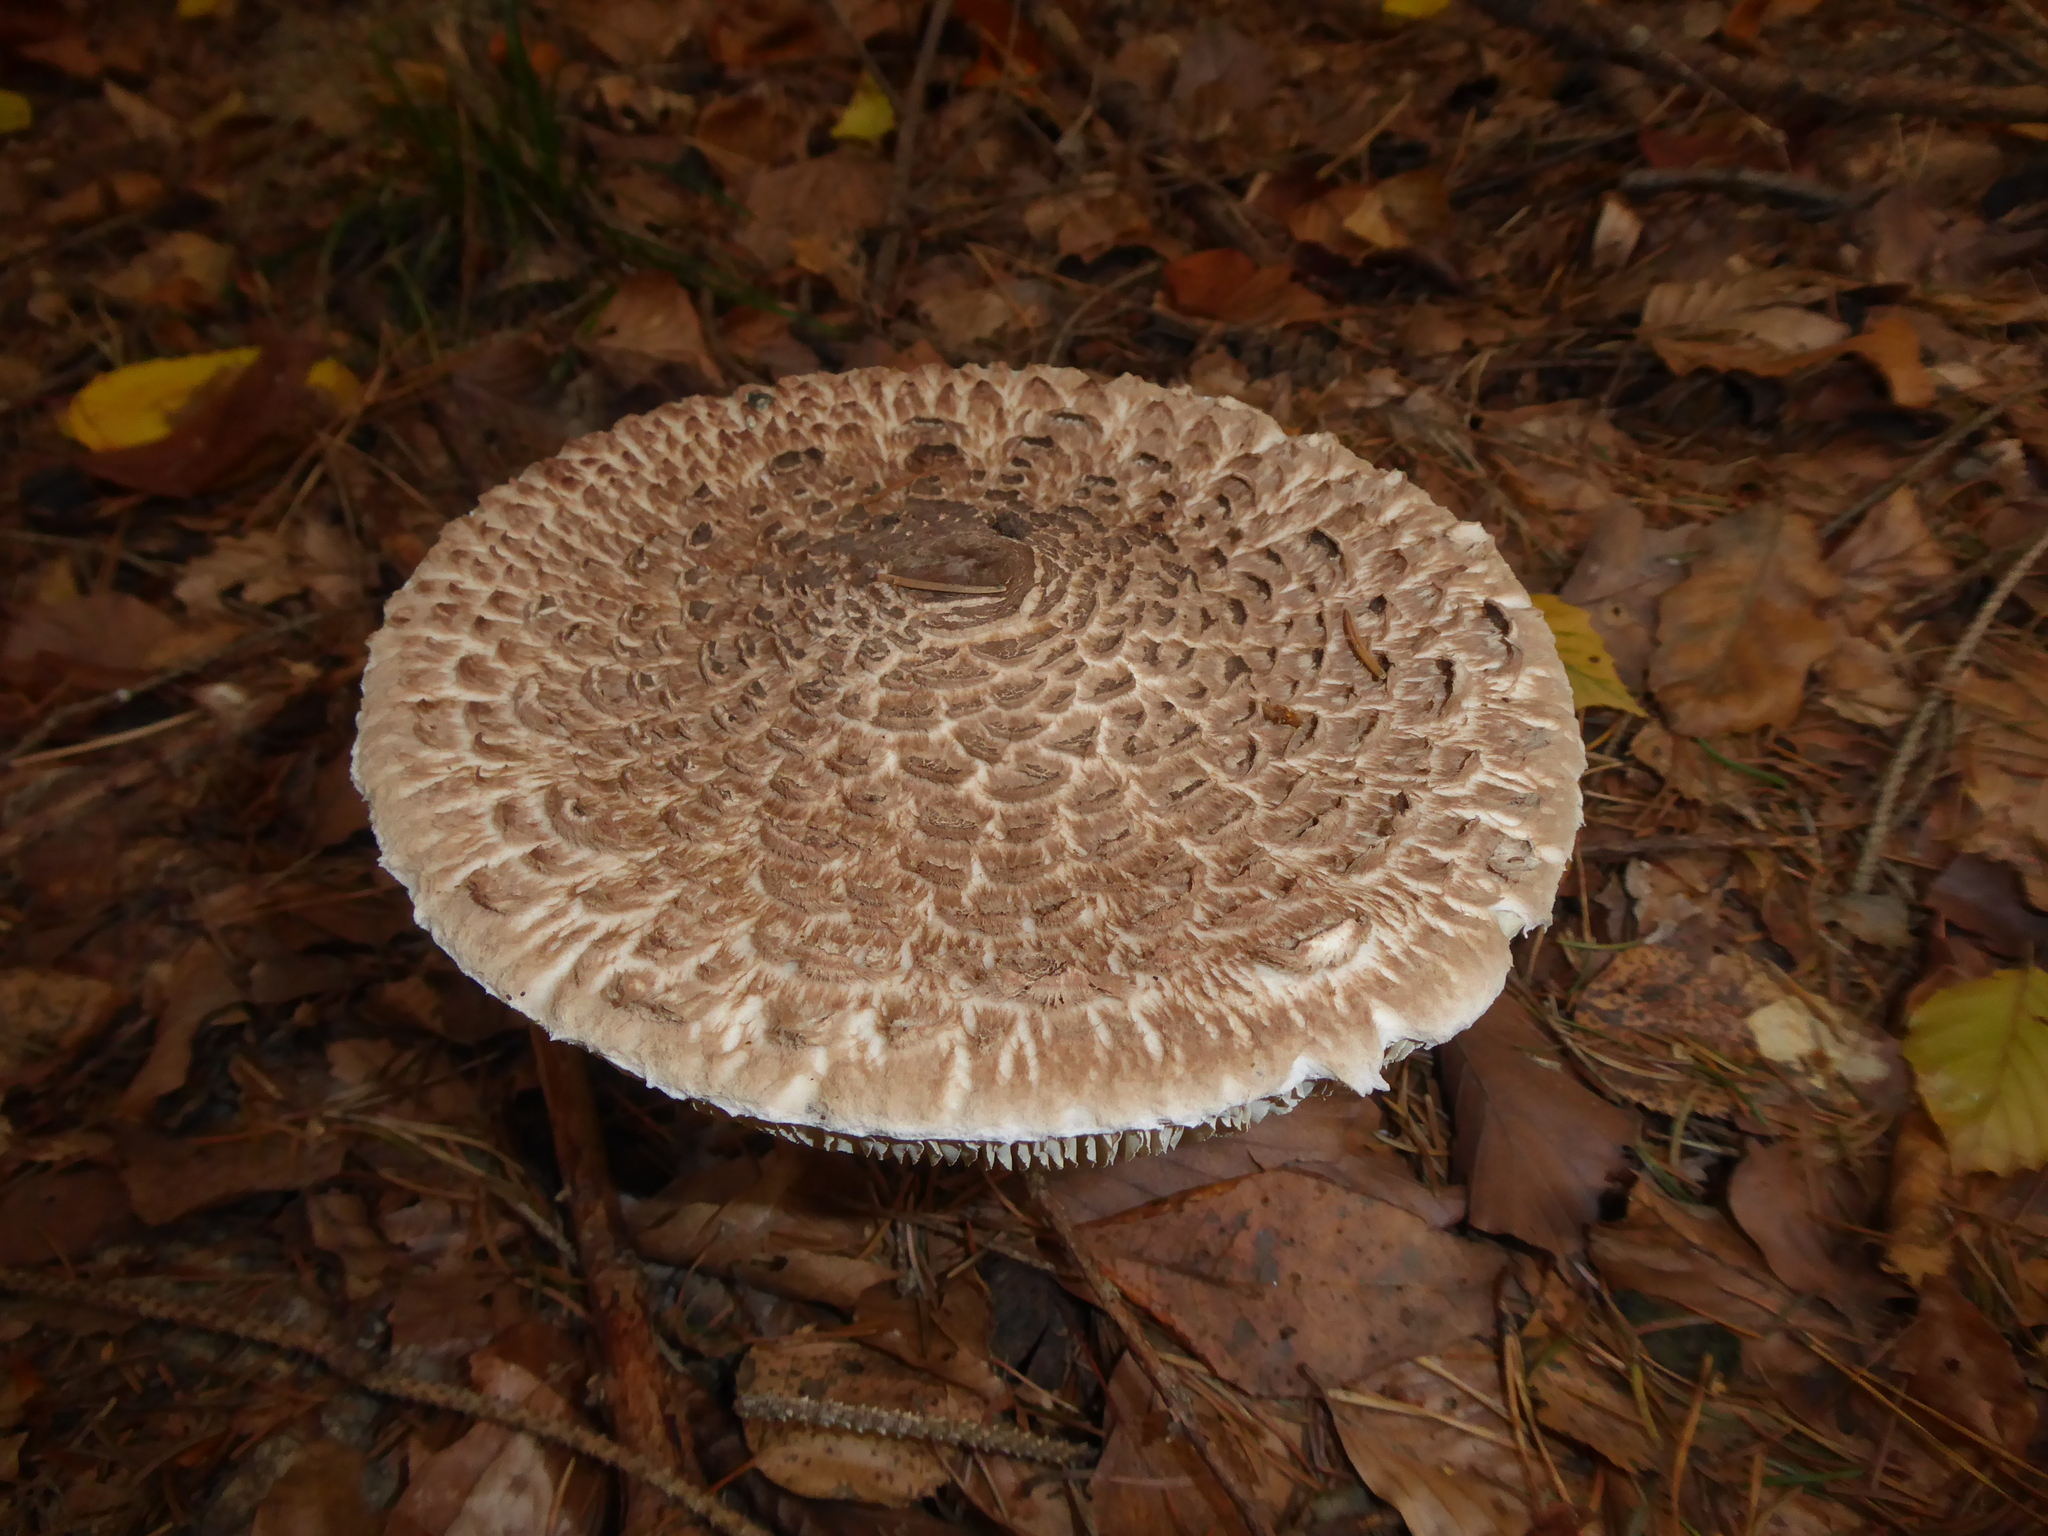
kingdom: Fungi
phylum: Basidiomycota
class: Agaricomycetes
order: Agaricales
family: Agaricaceae
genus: Macrolepiota
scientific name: Macrolepiota procera
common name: Parasol
